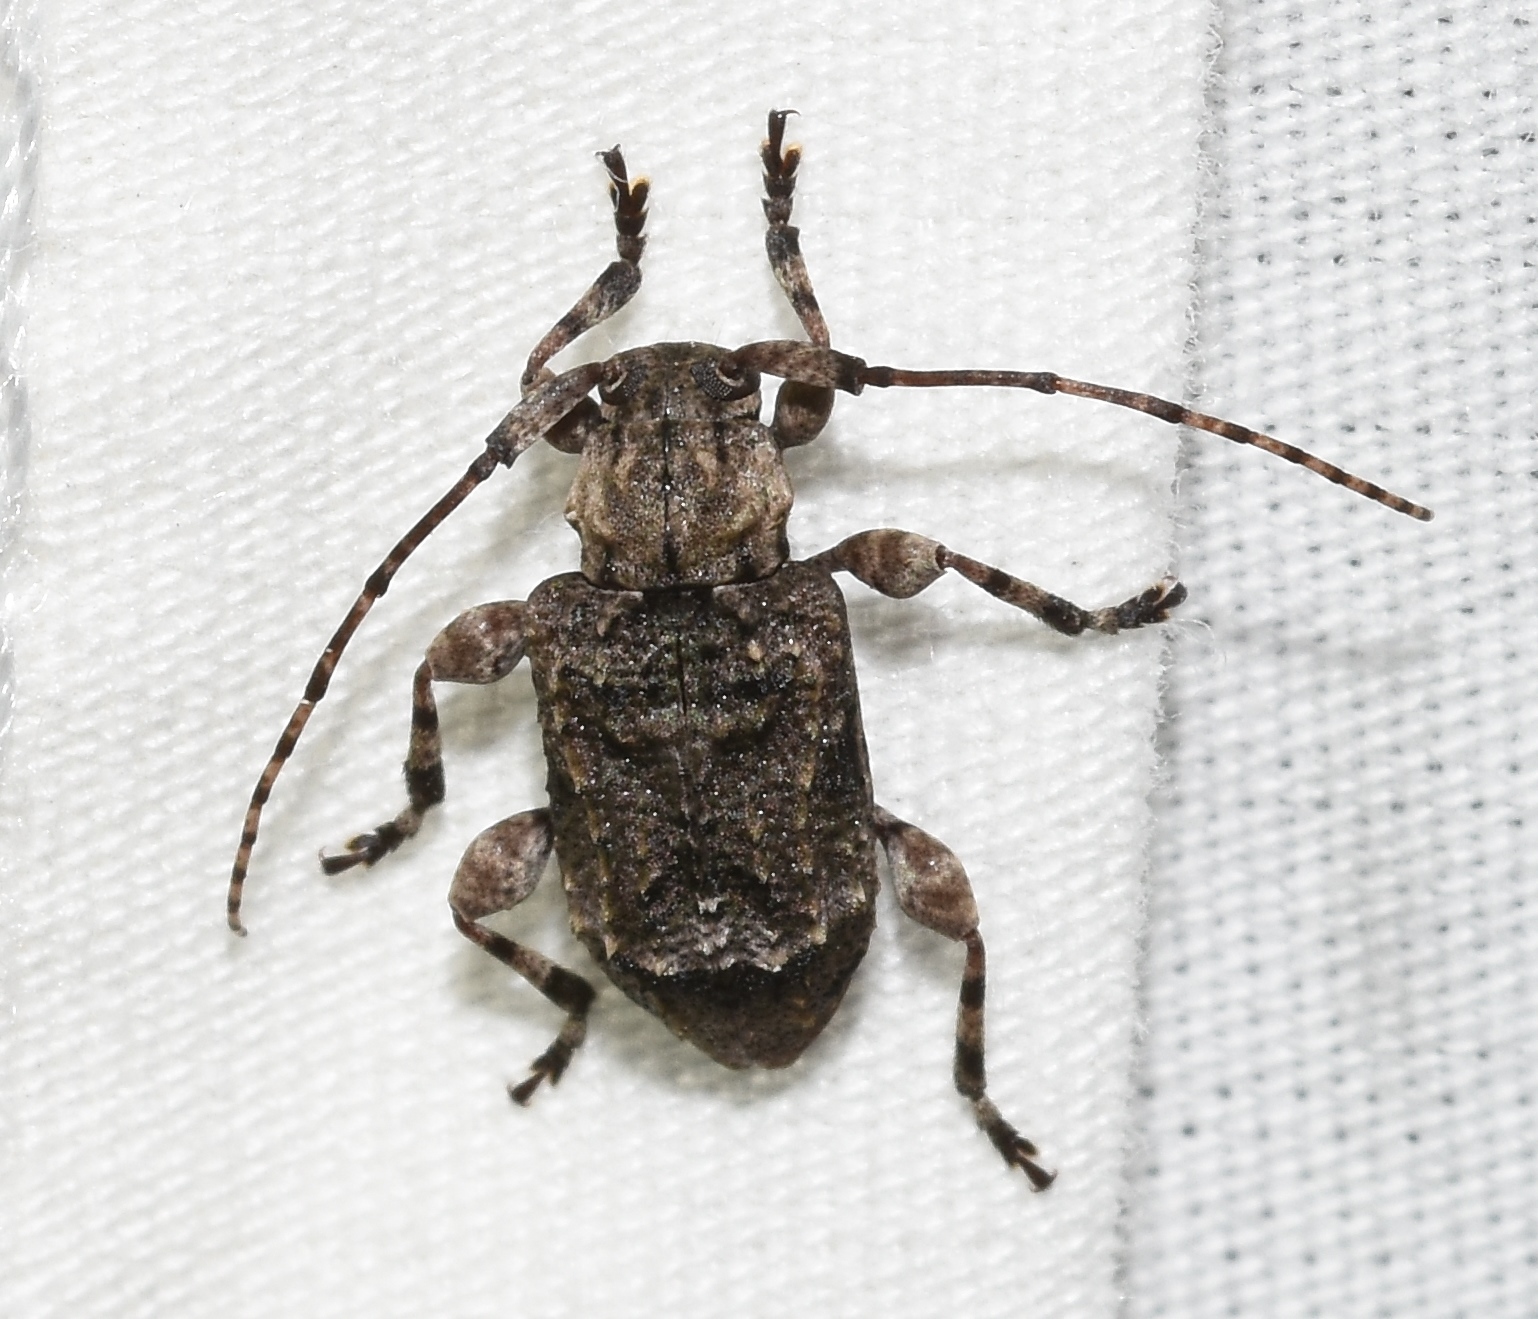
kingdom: Animalia
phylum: Arthropoda
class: Insecta
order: Coleoptera
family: Cerambycidae
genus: Leptostylus
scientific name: Leptostylus transversus
